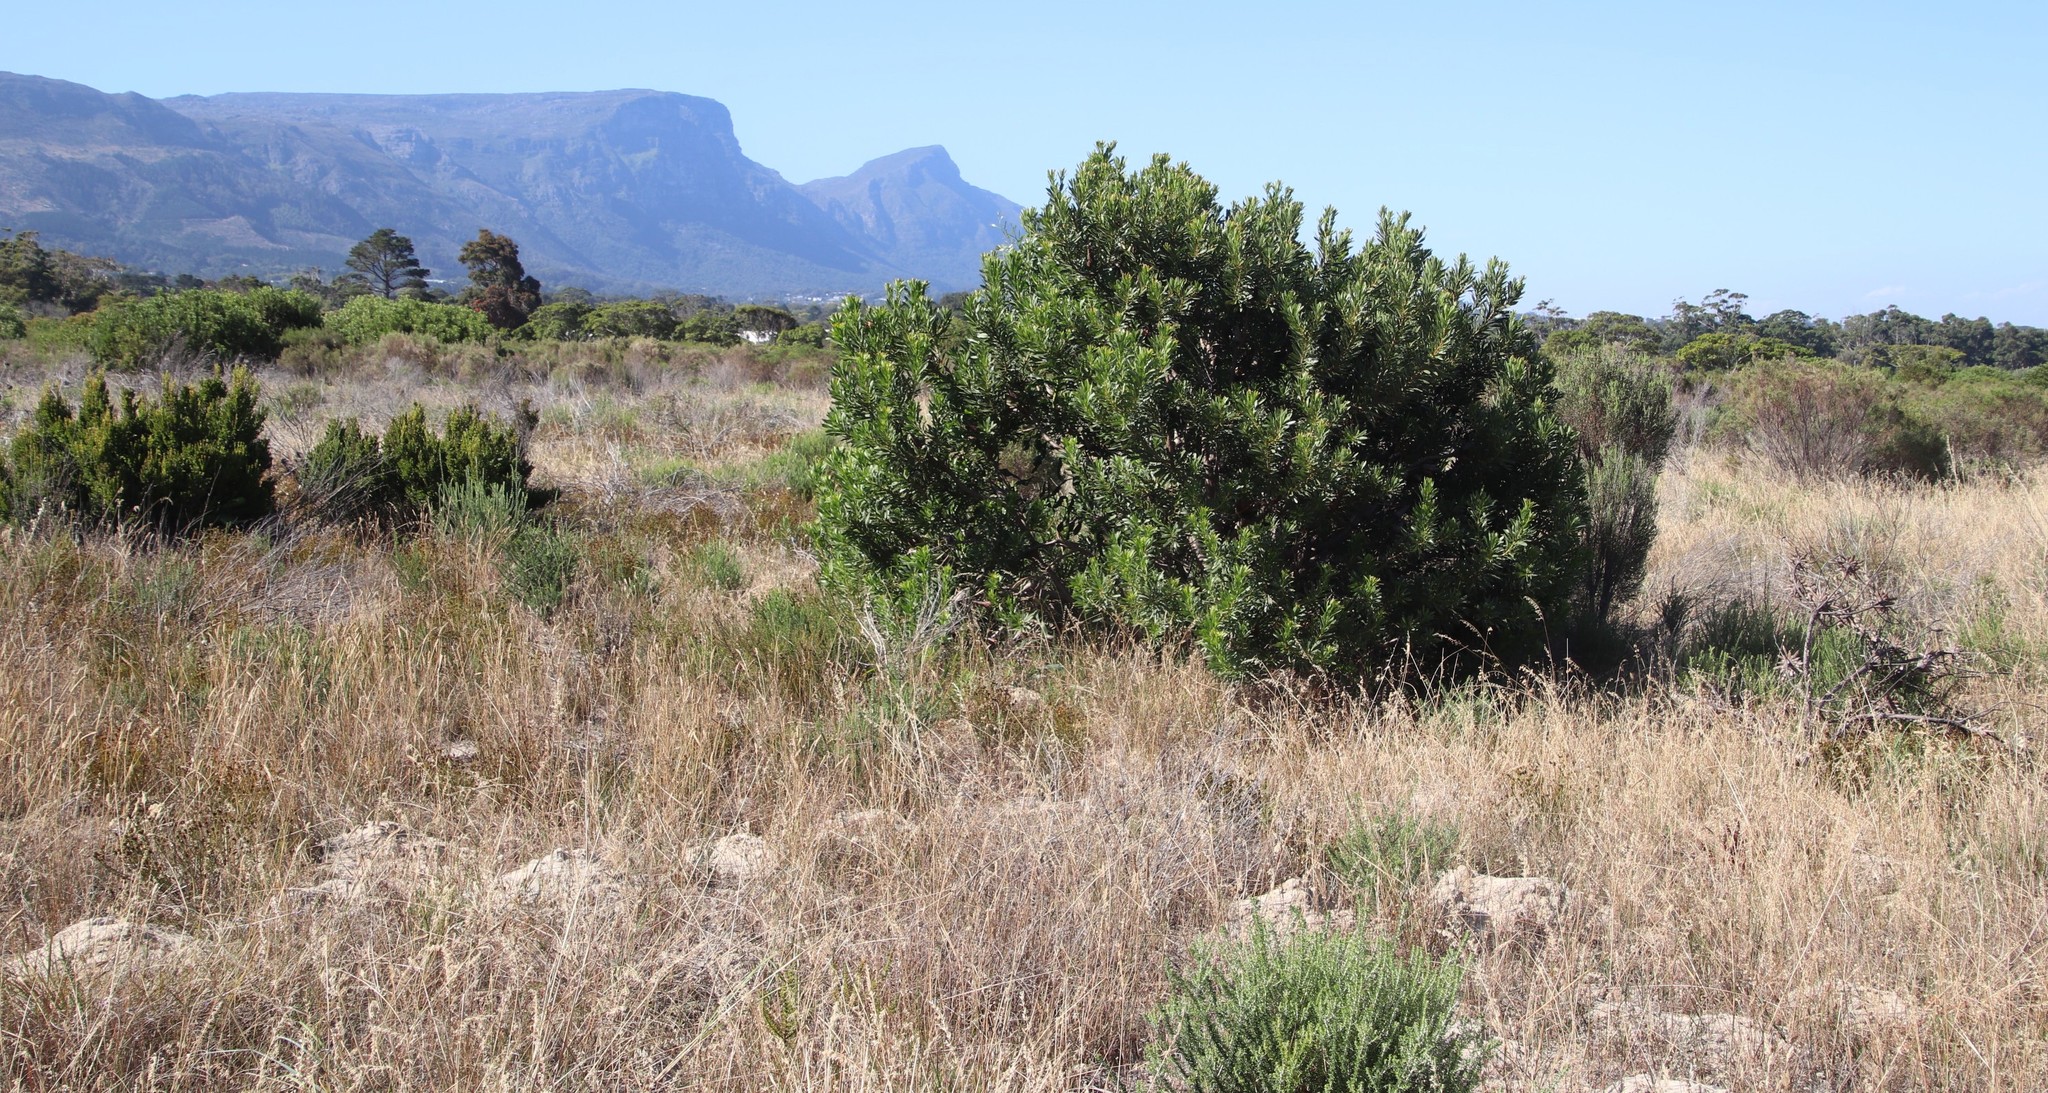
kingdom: Plantae
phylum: Tracheophyta
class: Liliopsida
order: Poales
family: Poaceae
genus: Tribolium
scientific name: Tribolium uniolae
